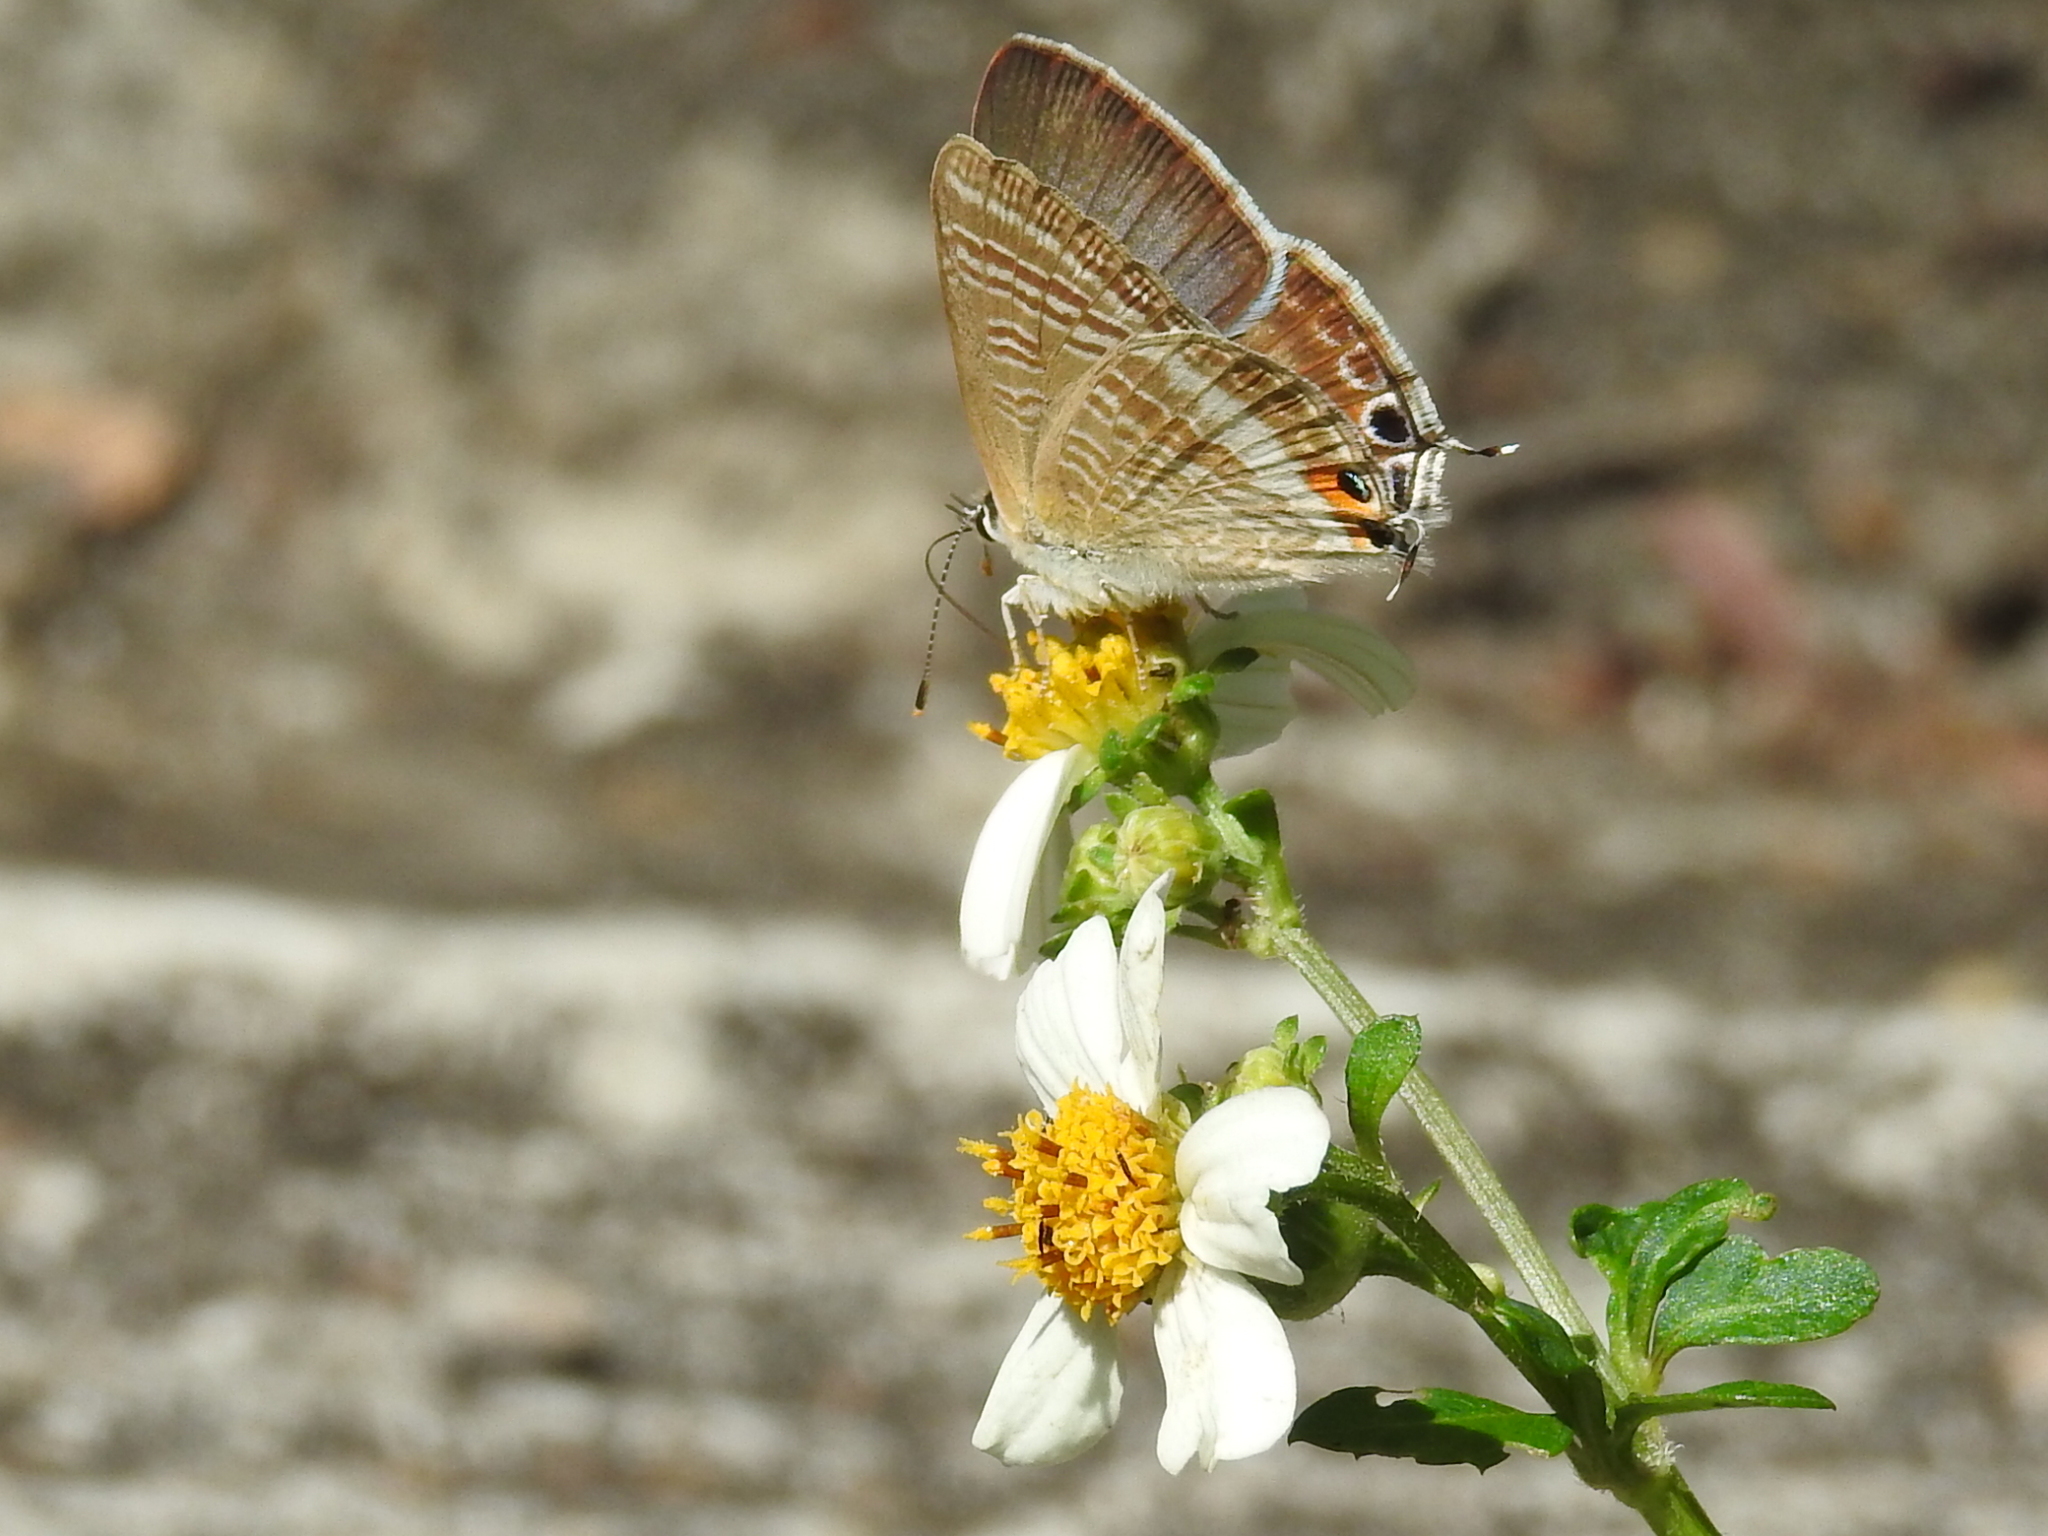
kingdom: Animalia
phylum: Arthropoda
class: Insecta
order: Lepidoptera
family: Lycaenidae
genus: Lampides
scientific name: Lampides boeticus
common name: Long-tailed blue
